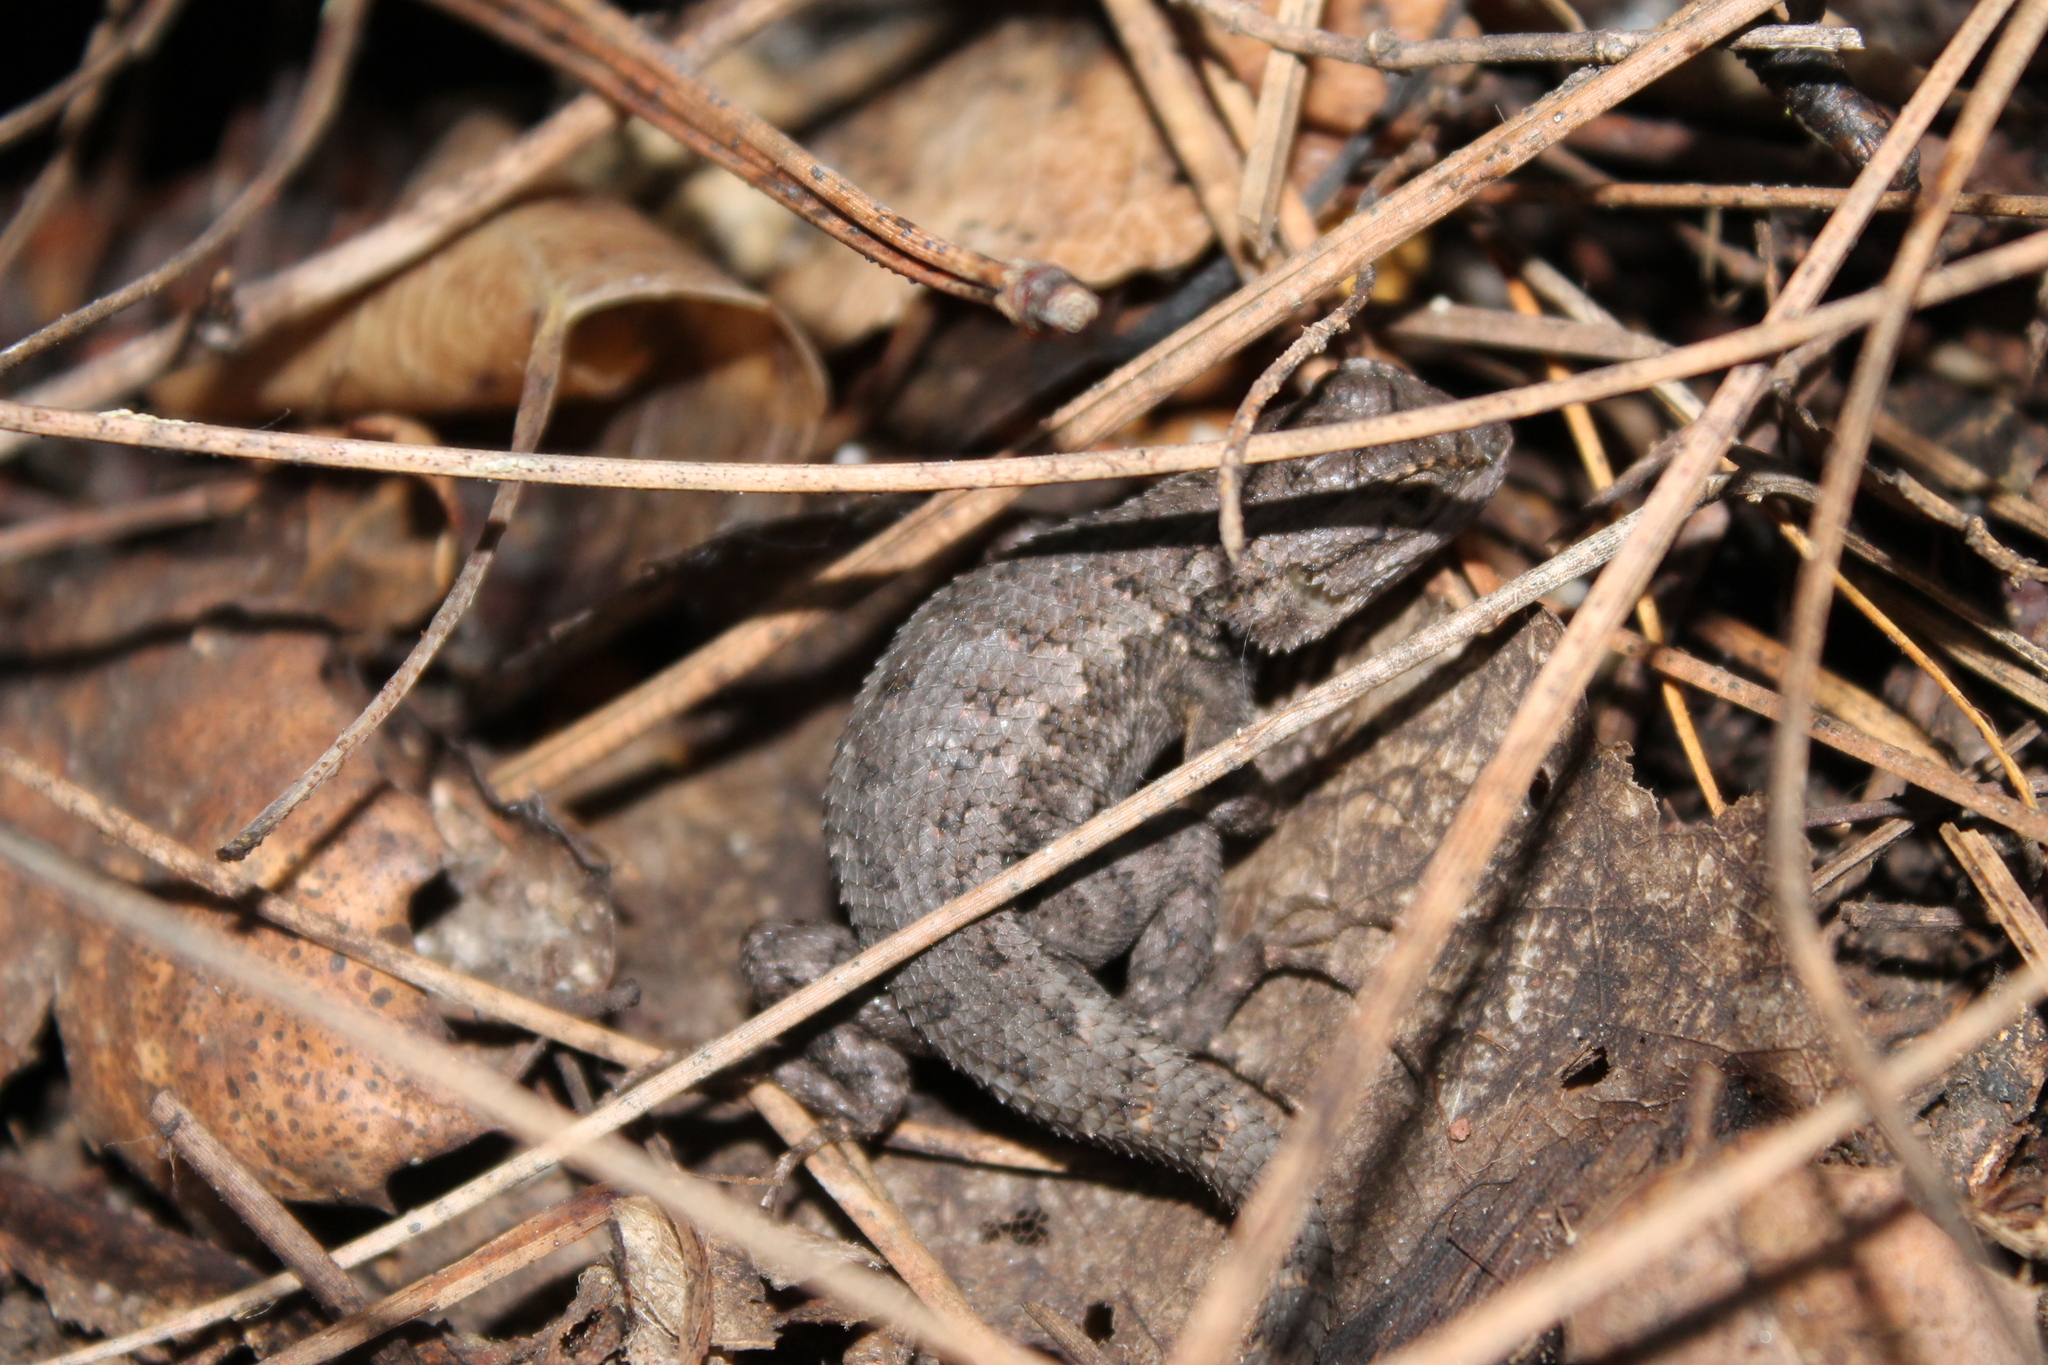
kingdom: Animalia
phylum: Chordata
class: Squamata
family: Phrynosomatidae
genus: Sceloporus
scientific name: Sceloporus occidentalis
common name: Western fence lizard
